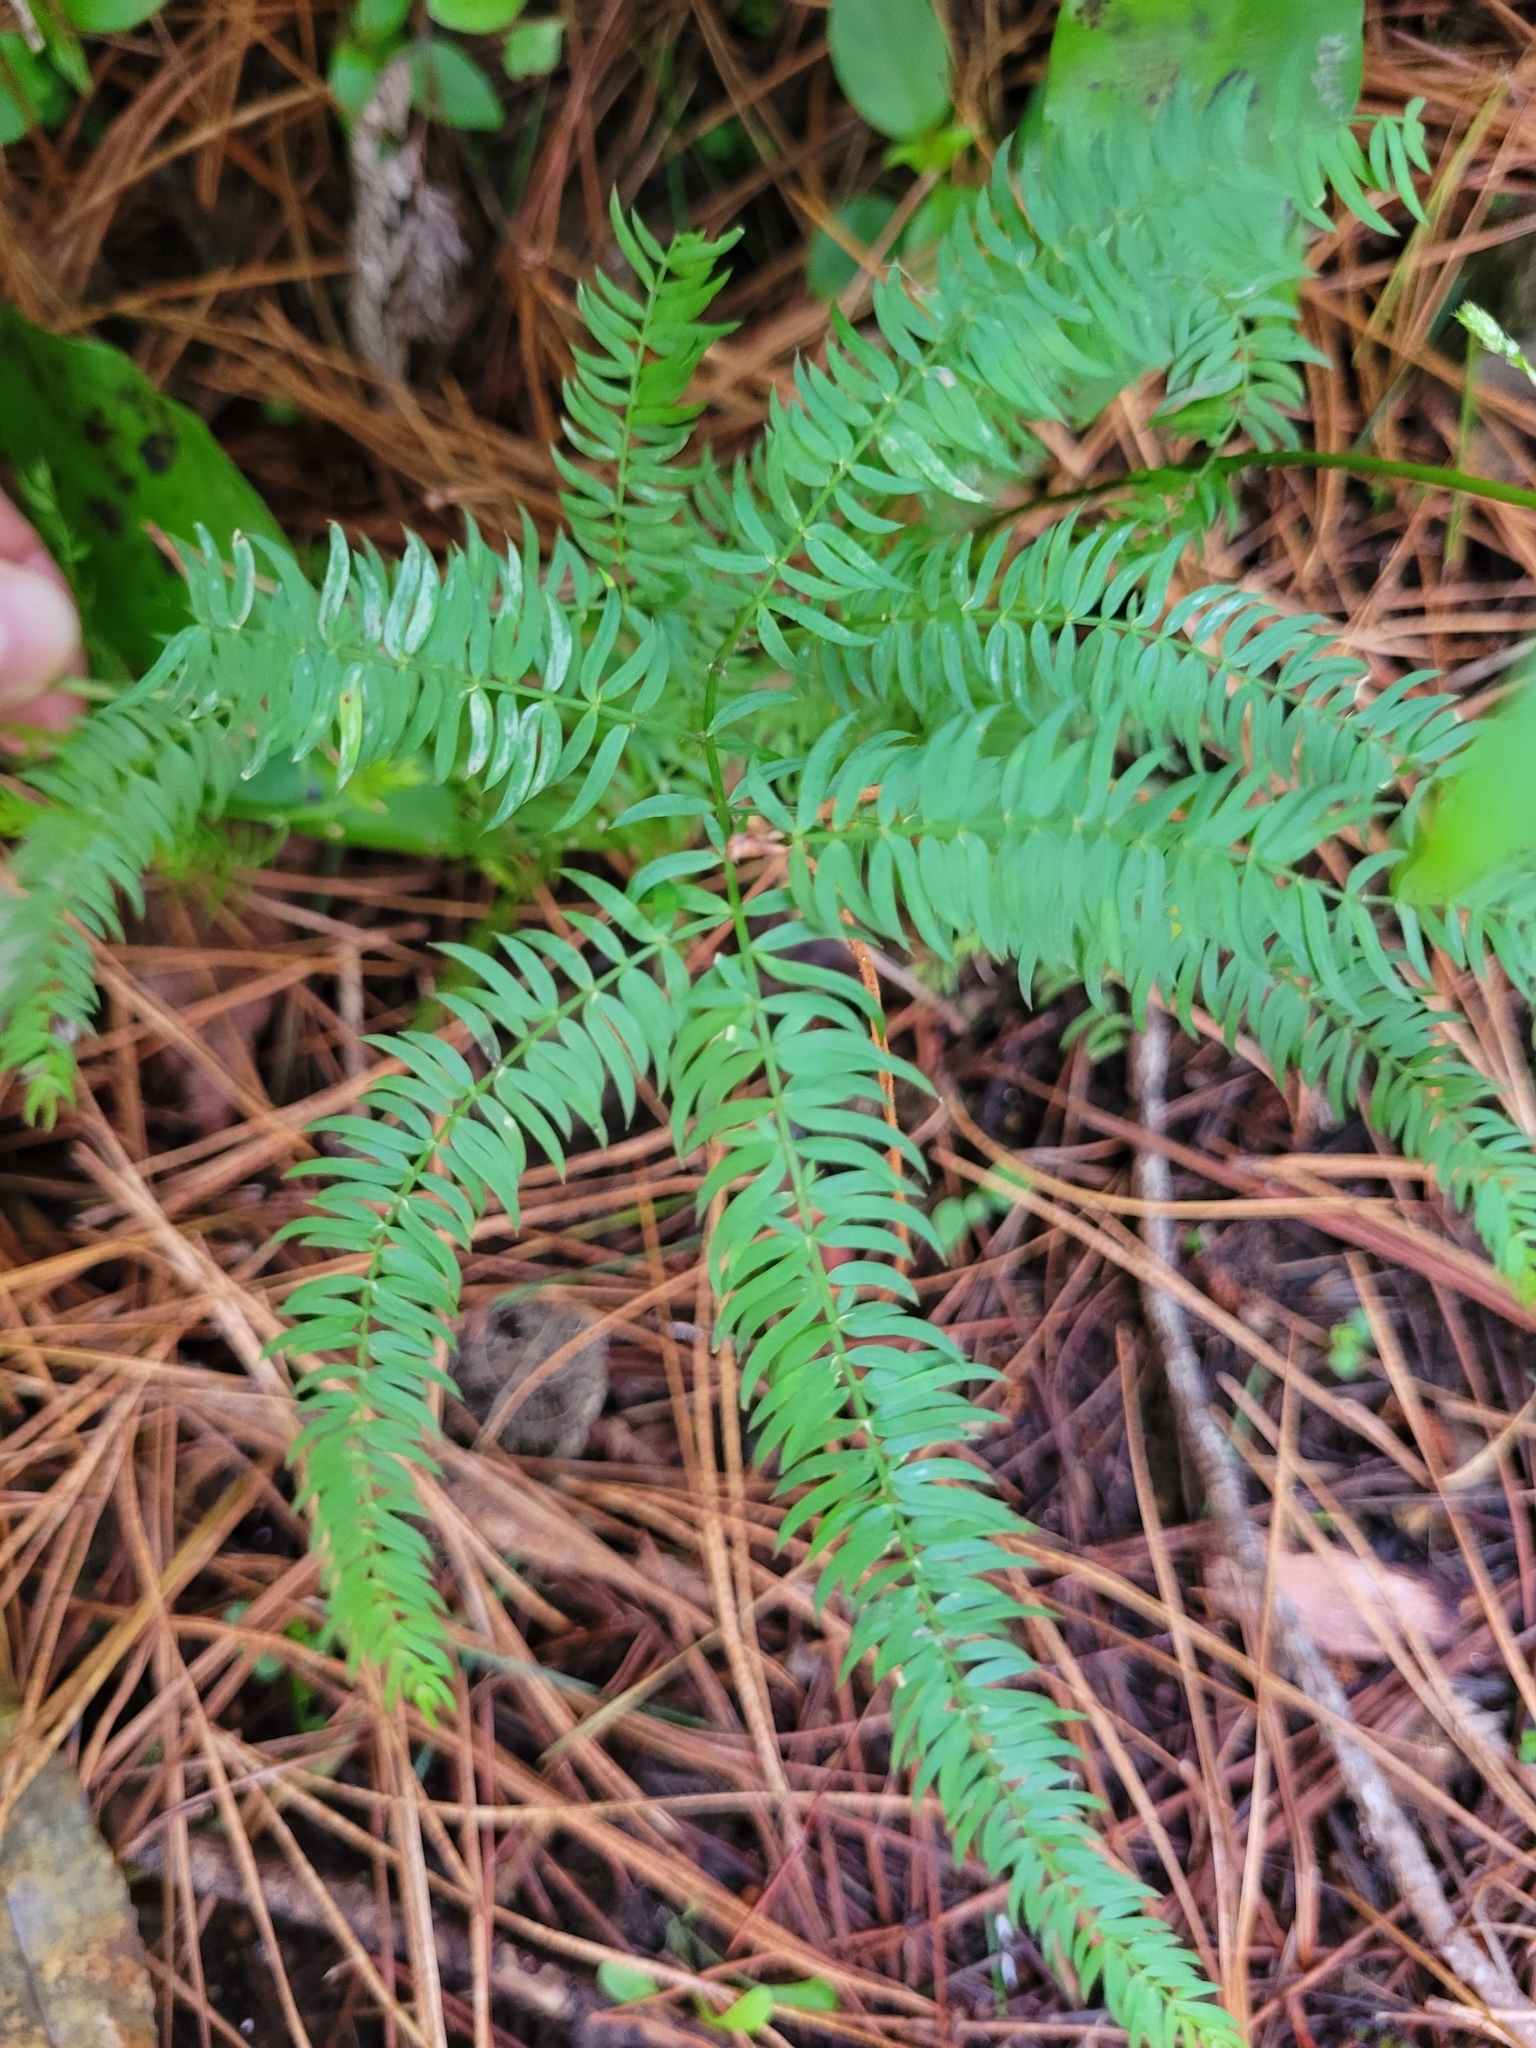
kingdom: Plantae
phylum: Tracheophyta
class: Liliopsida
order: Asparagales
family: Asparagaceae
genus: Asparagus
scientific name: Asparagus scandens
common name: Asparagus-fern
